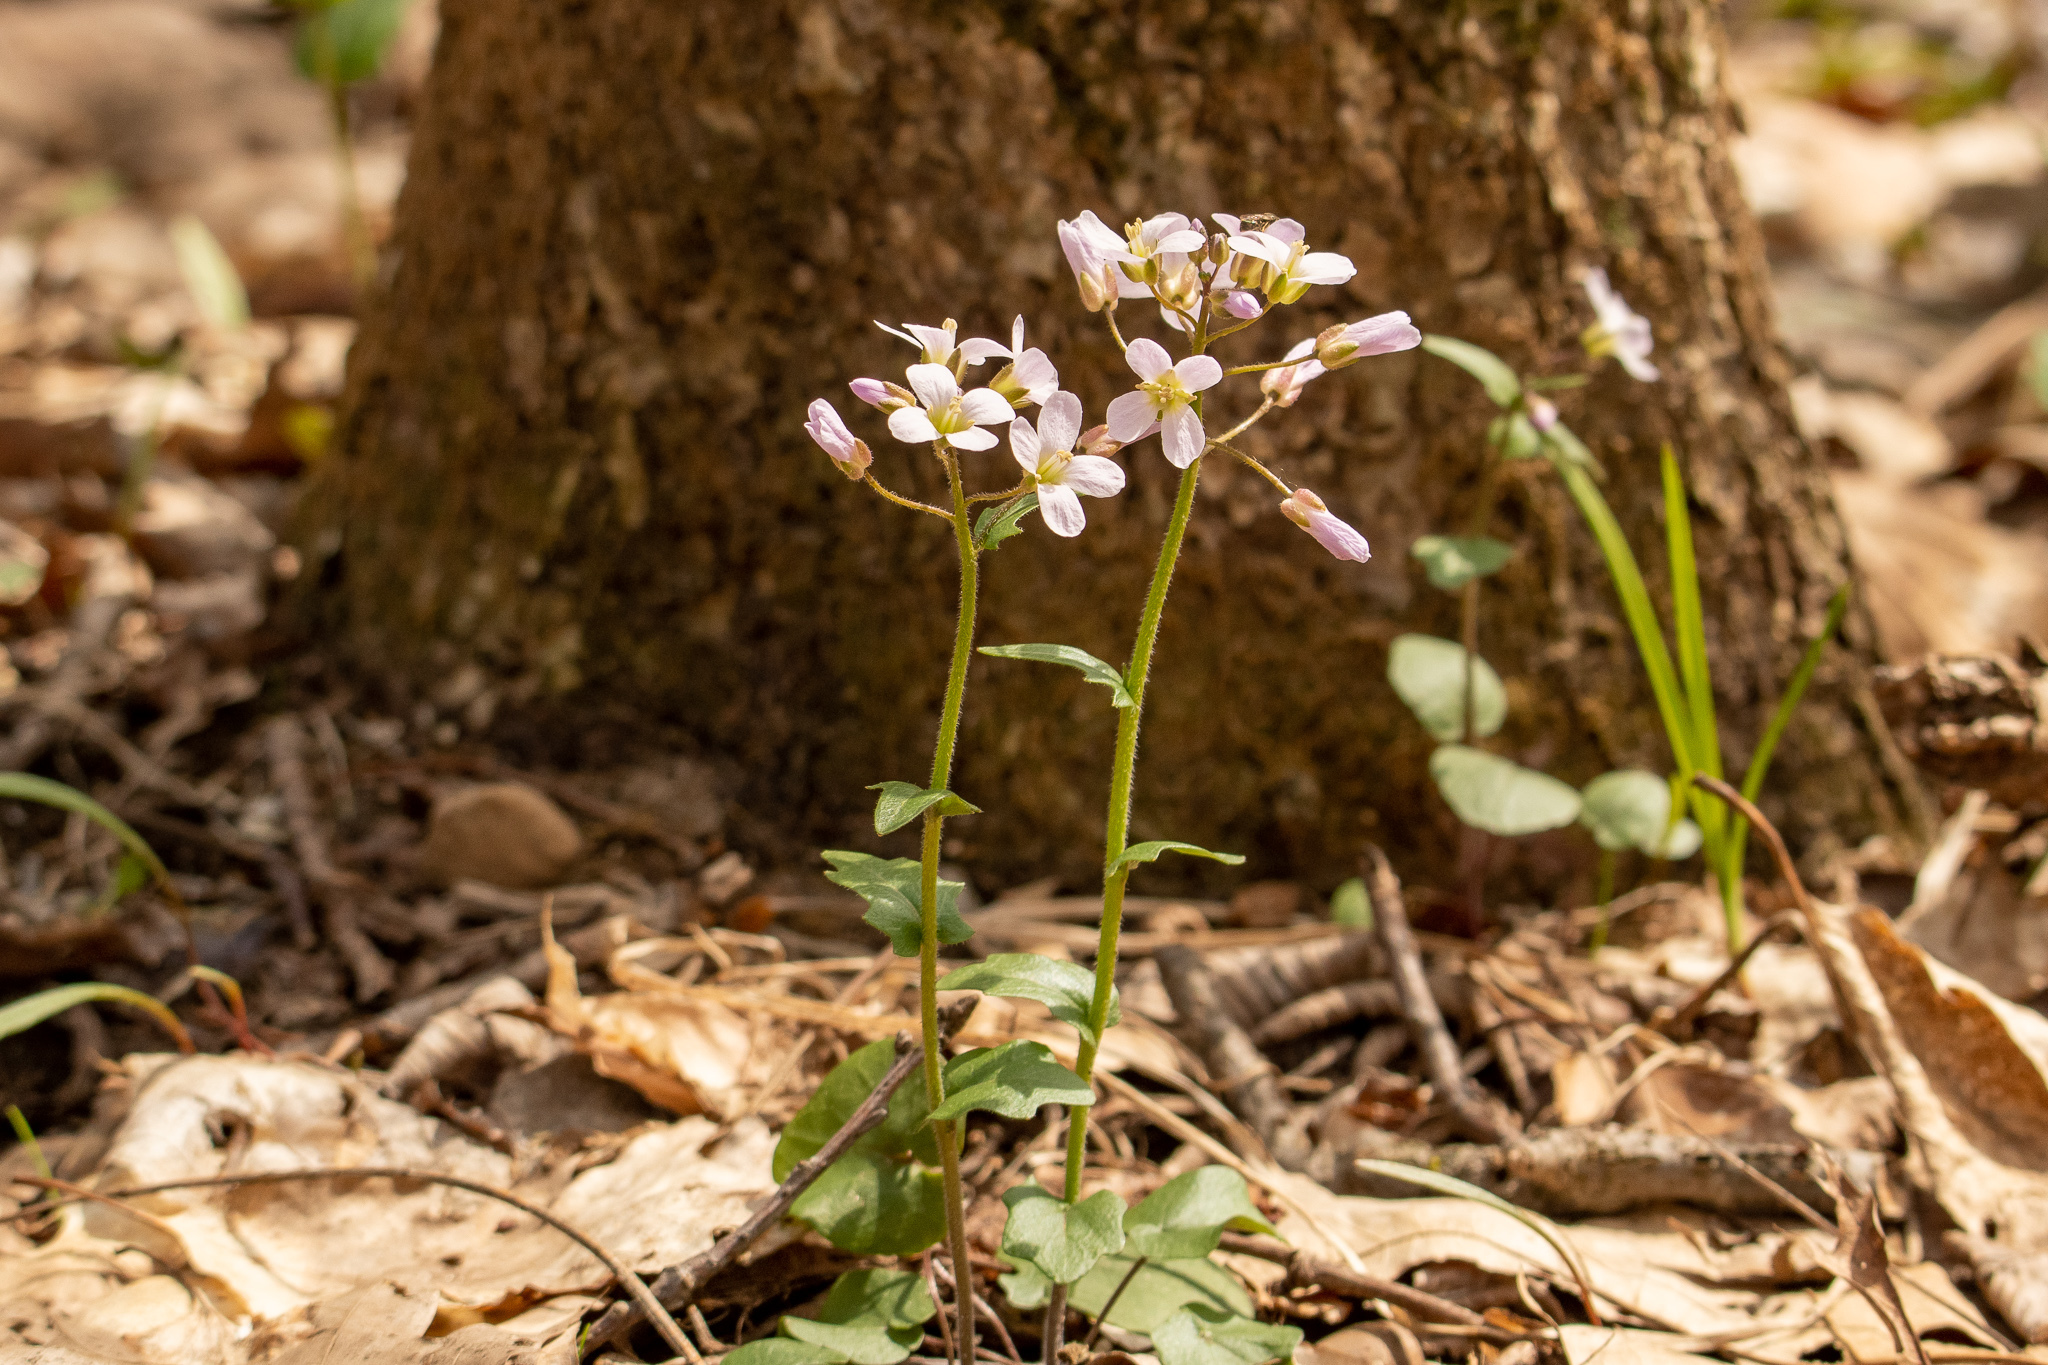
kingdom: Plantae
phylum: Tracheophyta
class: Magnoliopsida
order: Brassicales
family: Brassicaceae
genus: Cardamine
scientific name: Cardamine douglassii
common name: Purple cress
